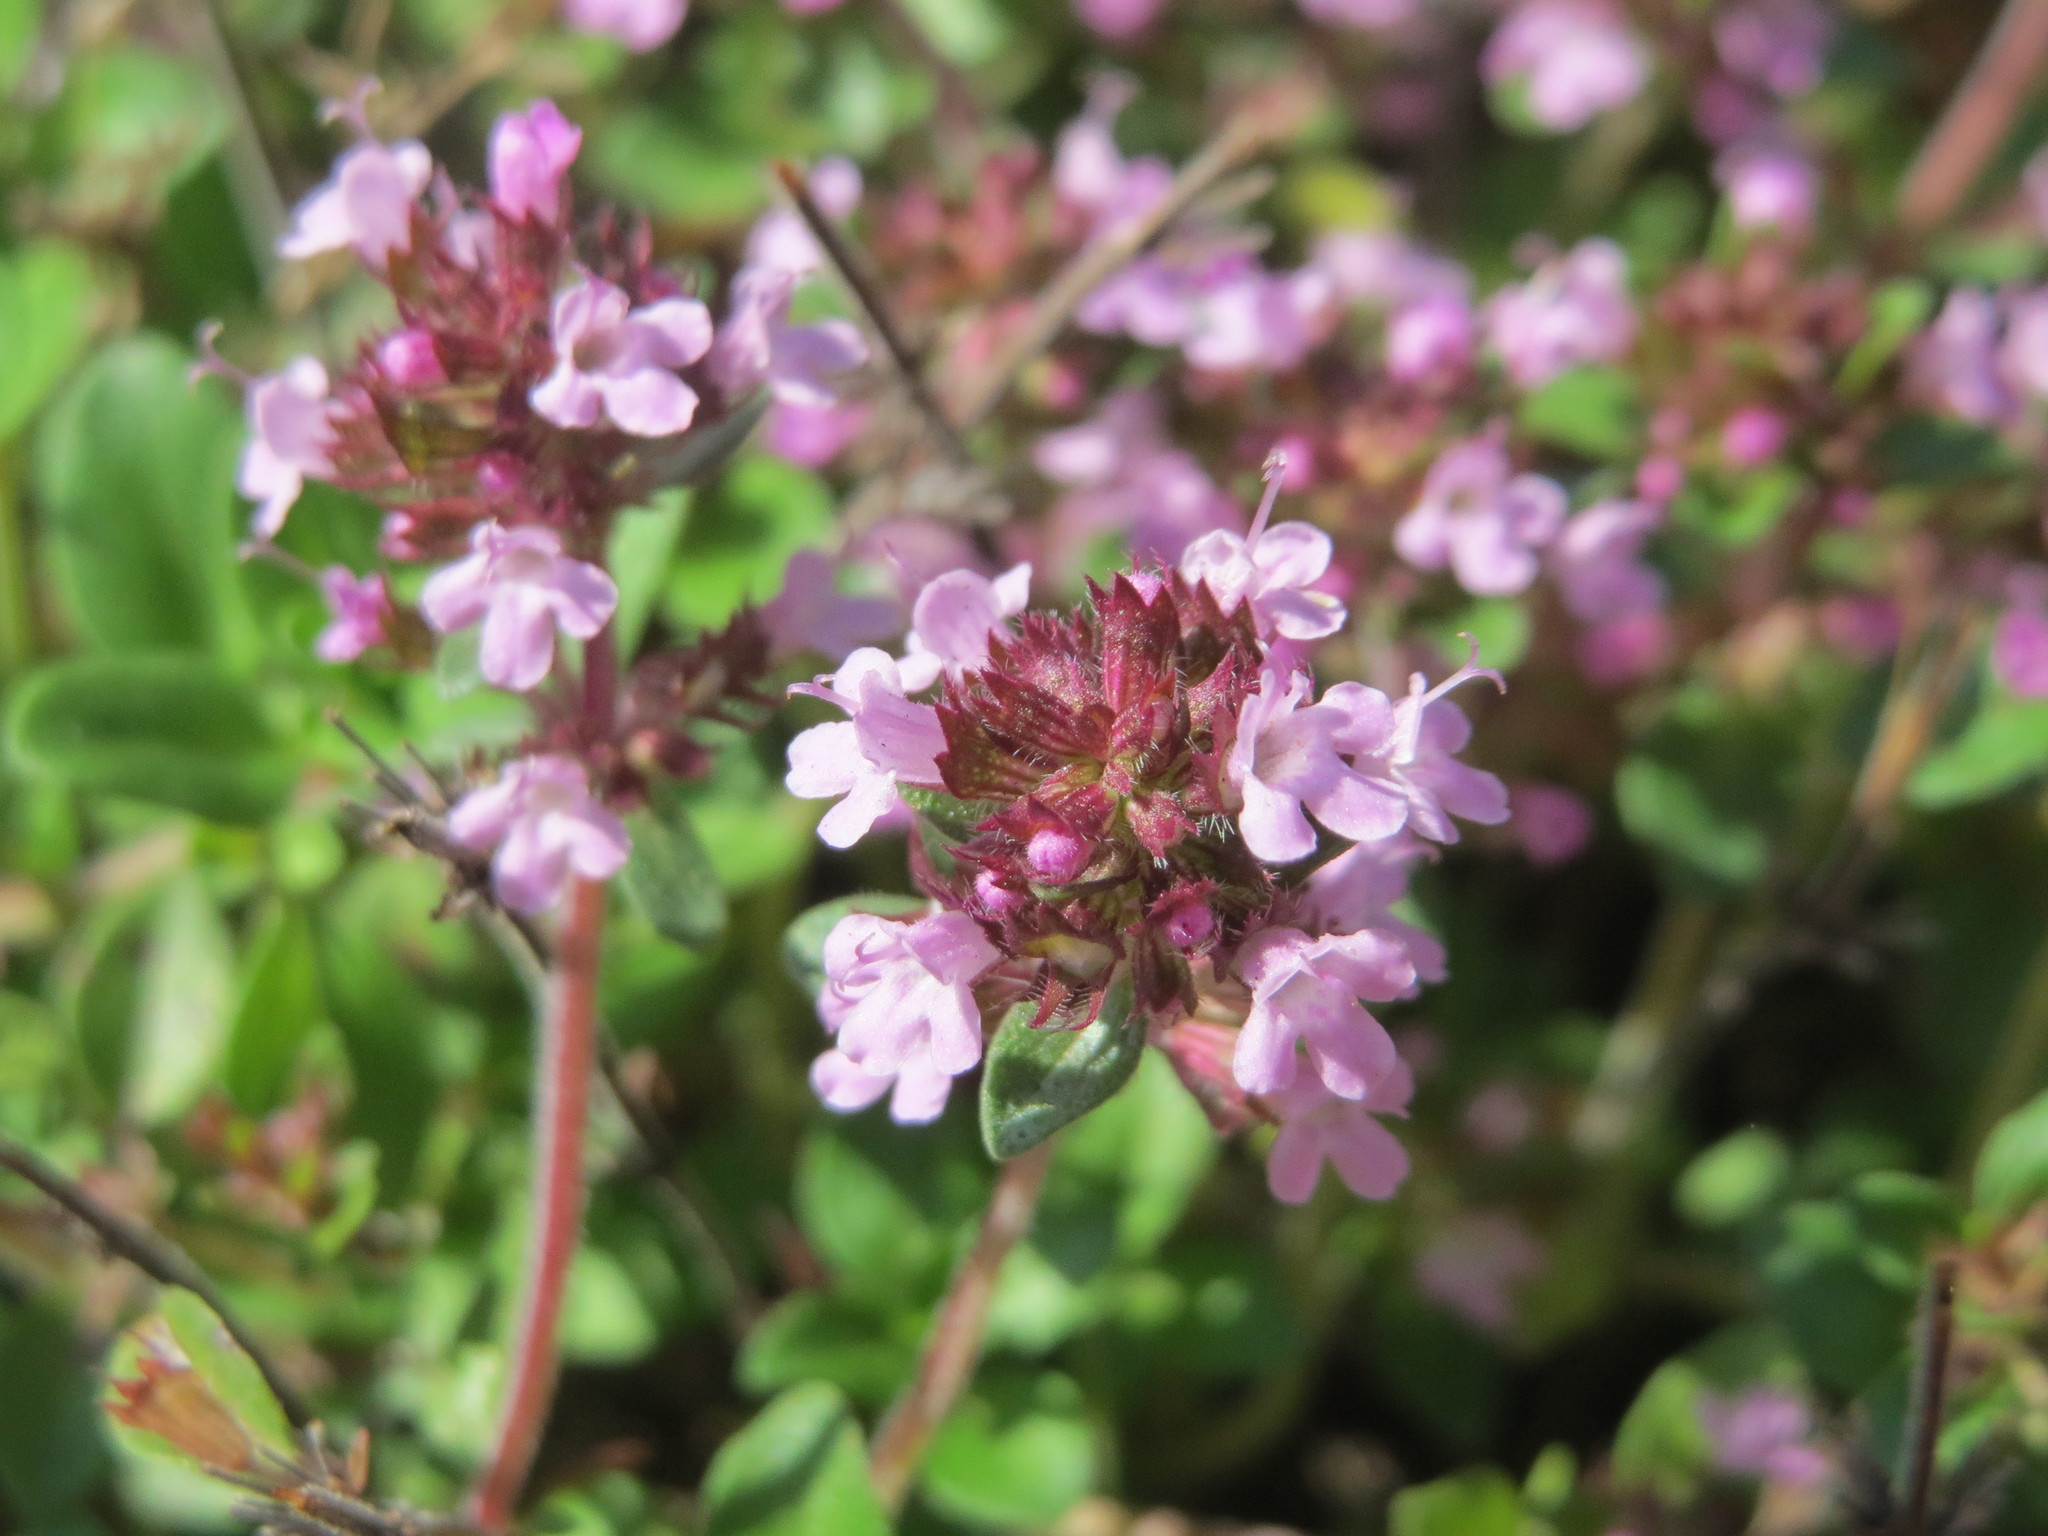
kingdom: Plantae
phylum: Tracheophyta
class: Magnoliopsida
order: Lamiales
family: Lamiaceae
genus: Thymus
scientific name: Thymus pulegioides
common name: Large thyme
